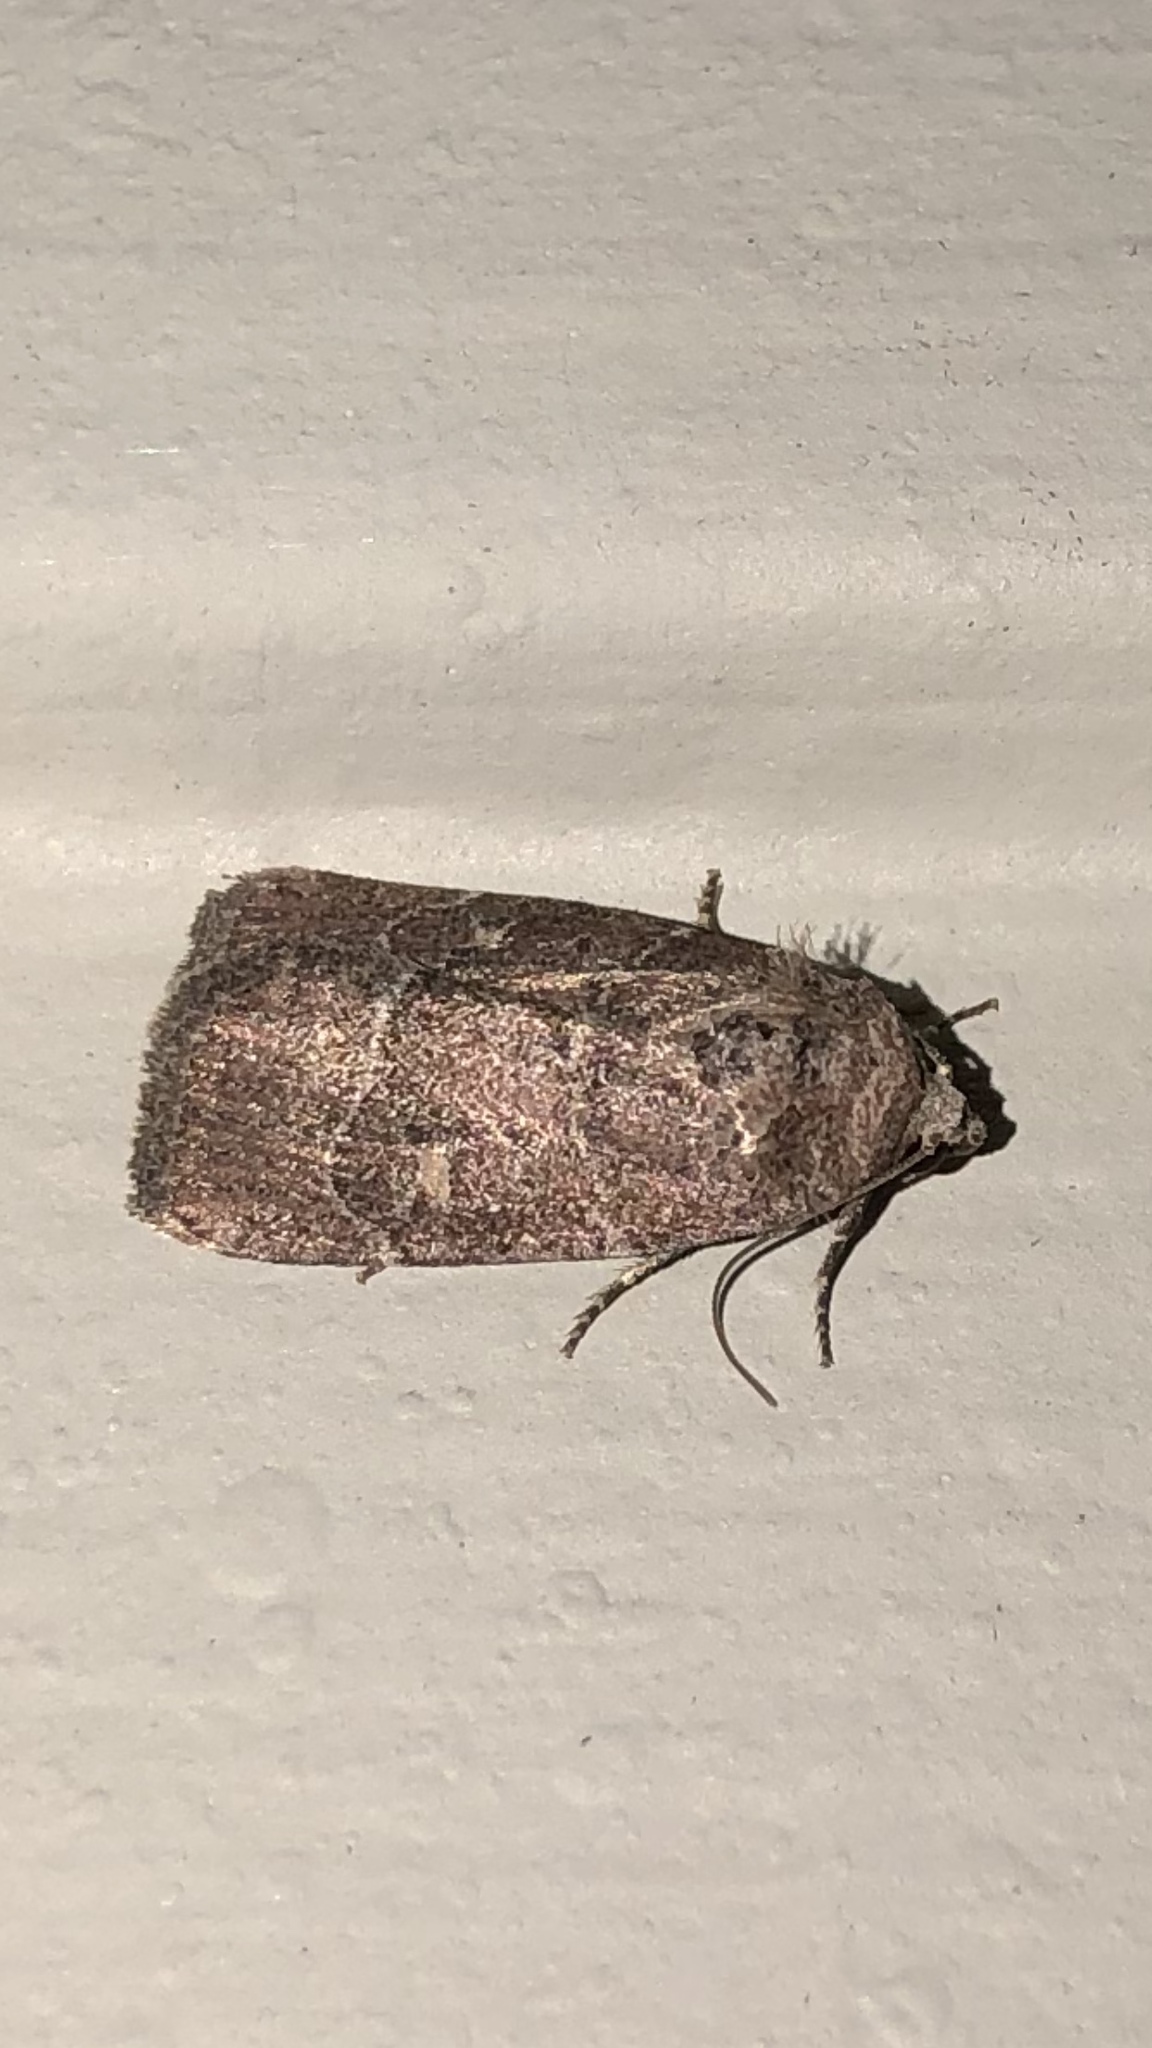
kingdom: Animalia
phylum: Arthropoda
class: Insecta
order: Lepidoptera
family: Noctuidae
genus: Elaphria
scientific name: Elaphria grata
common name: Grateful midget moth
